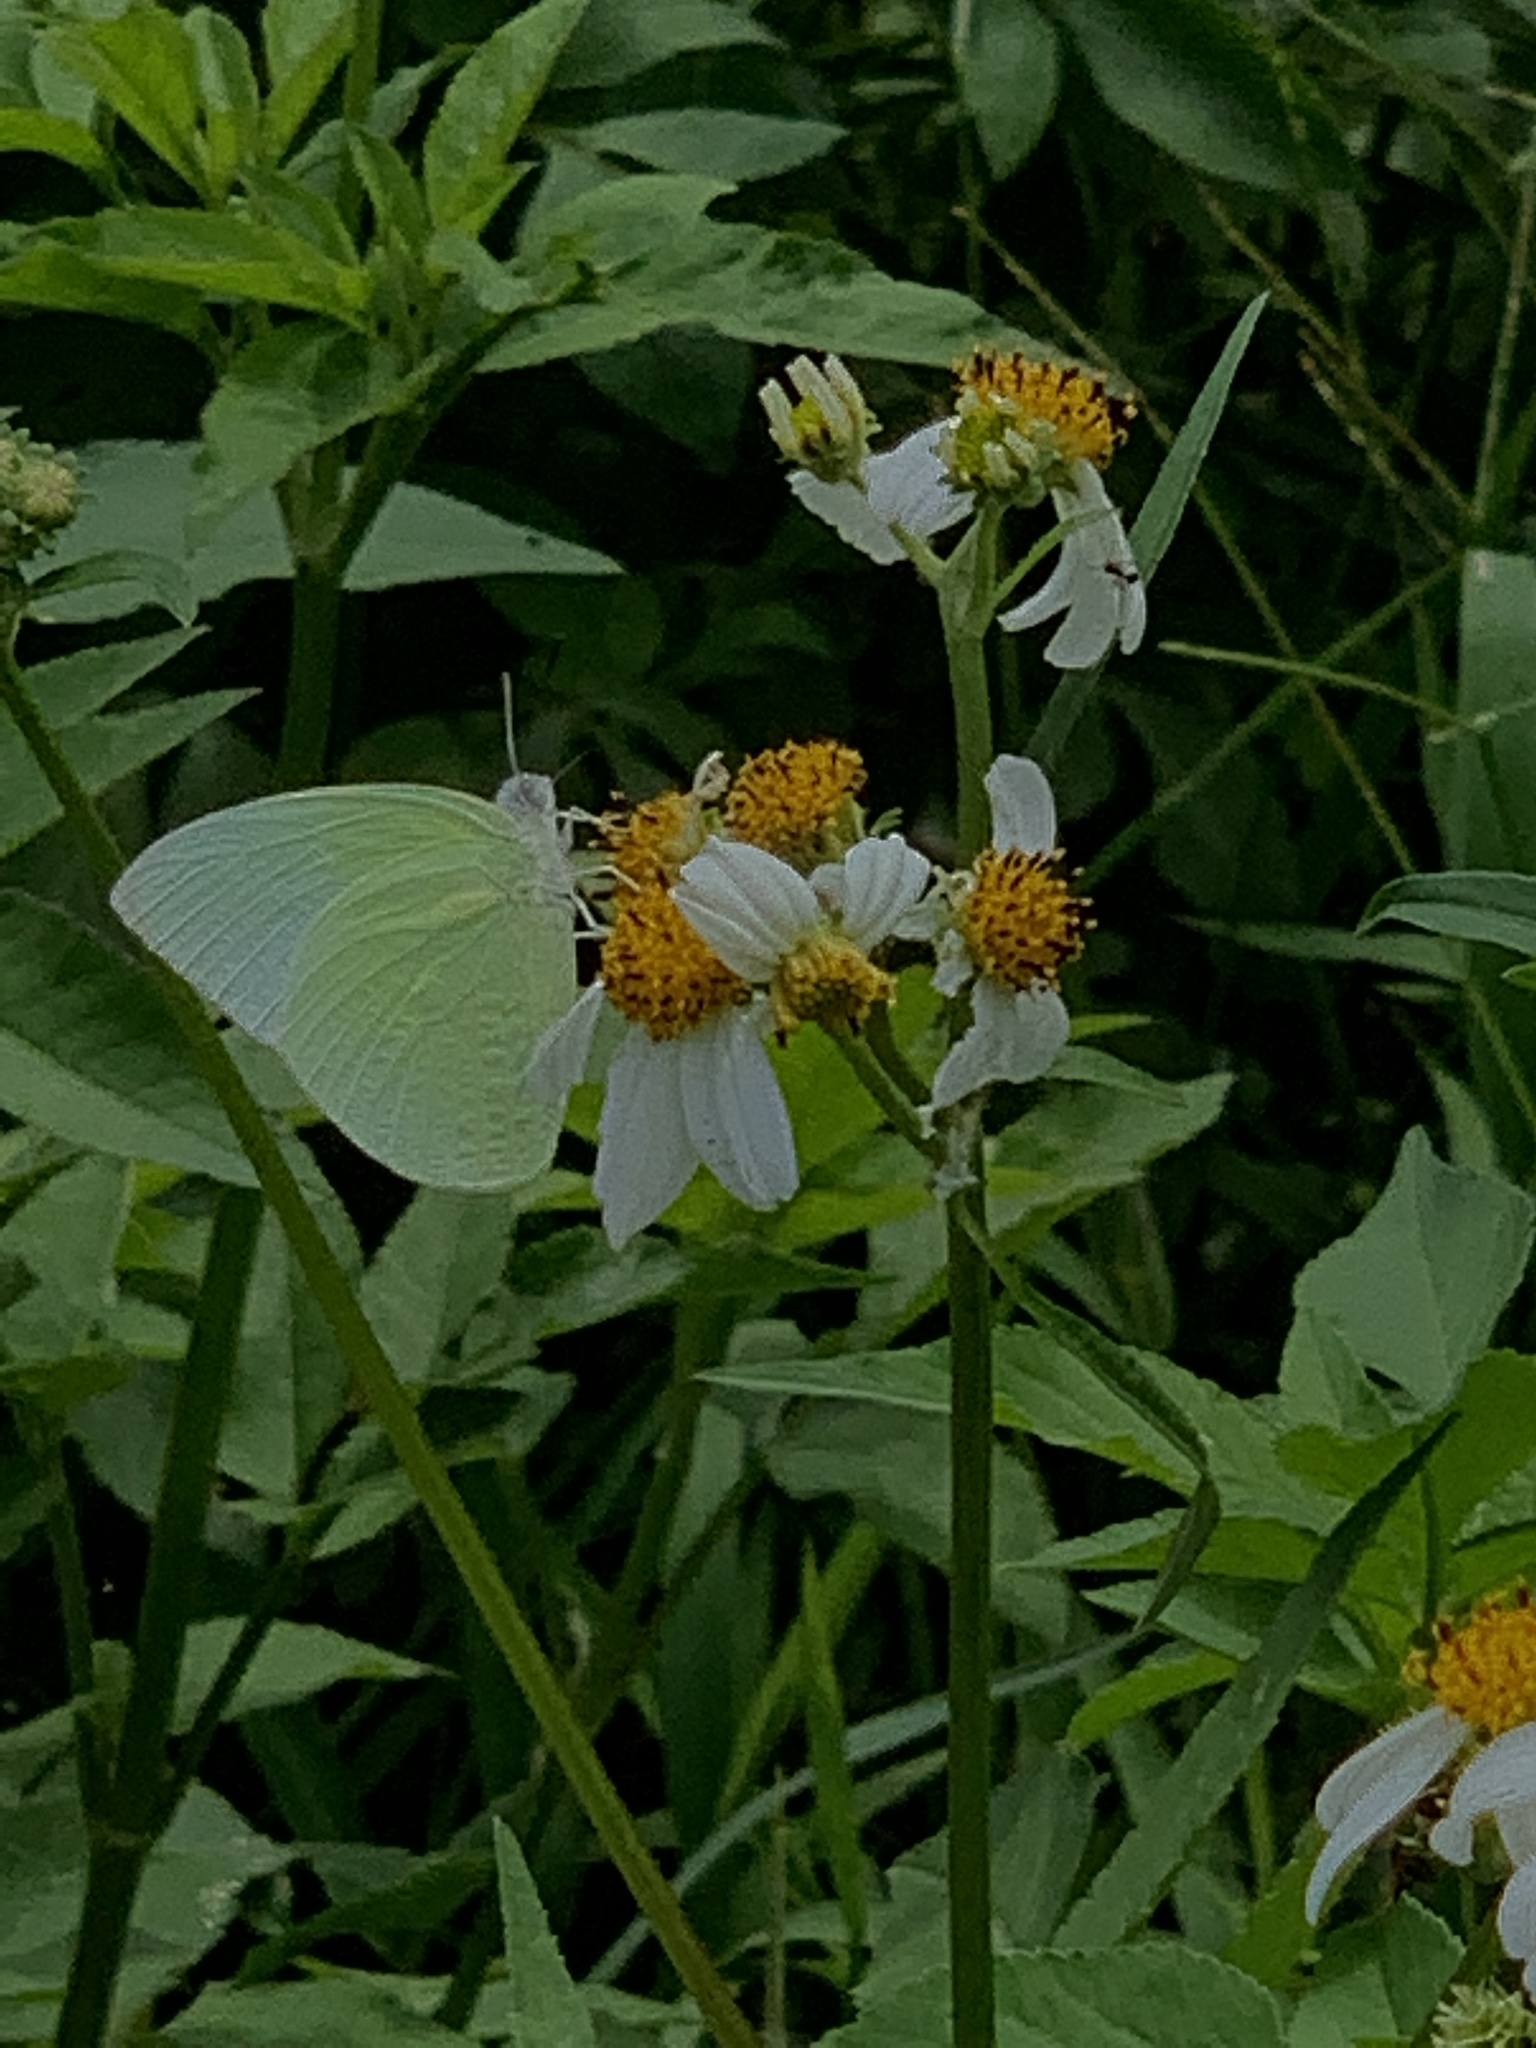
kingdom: Animalia
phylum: Arthropoda
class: Insecta
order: Lepidoptera
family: Pieridae
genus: Catopsilia
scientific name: Catopsilia pomona
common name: Common emigrant
